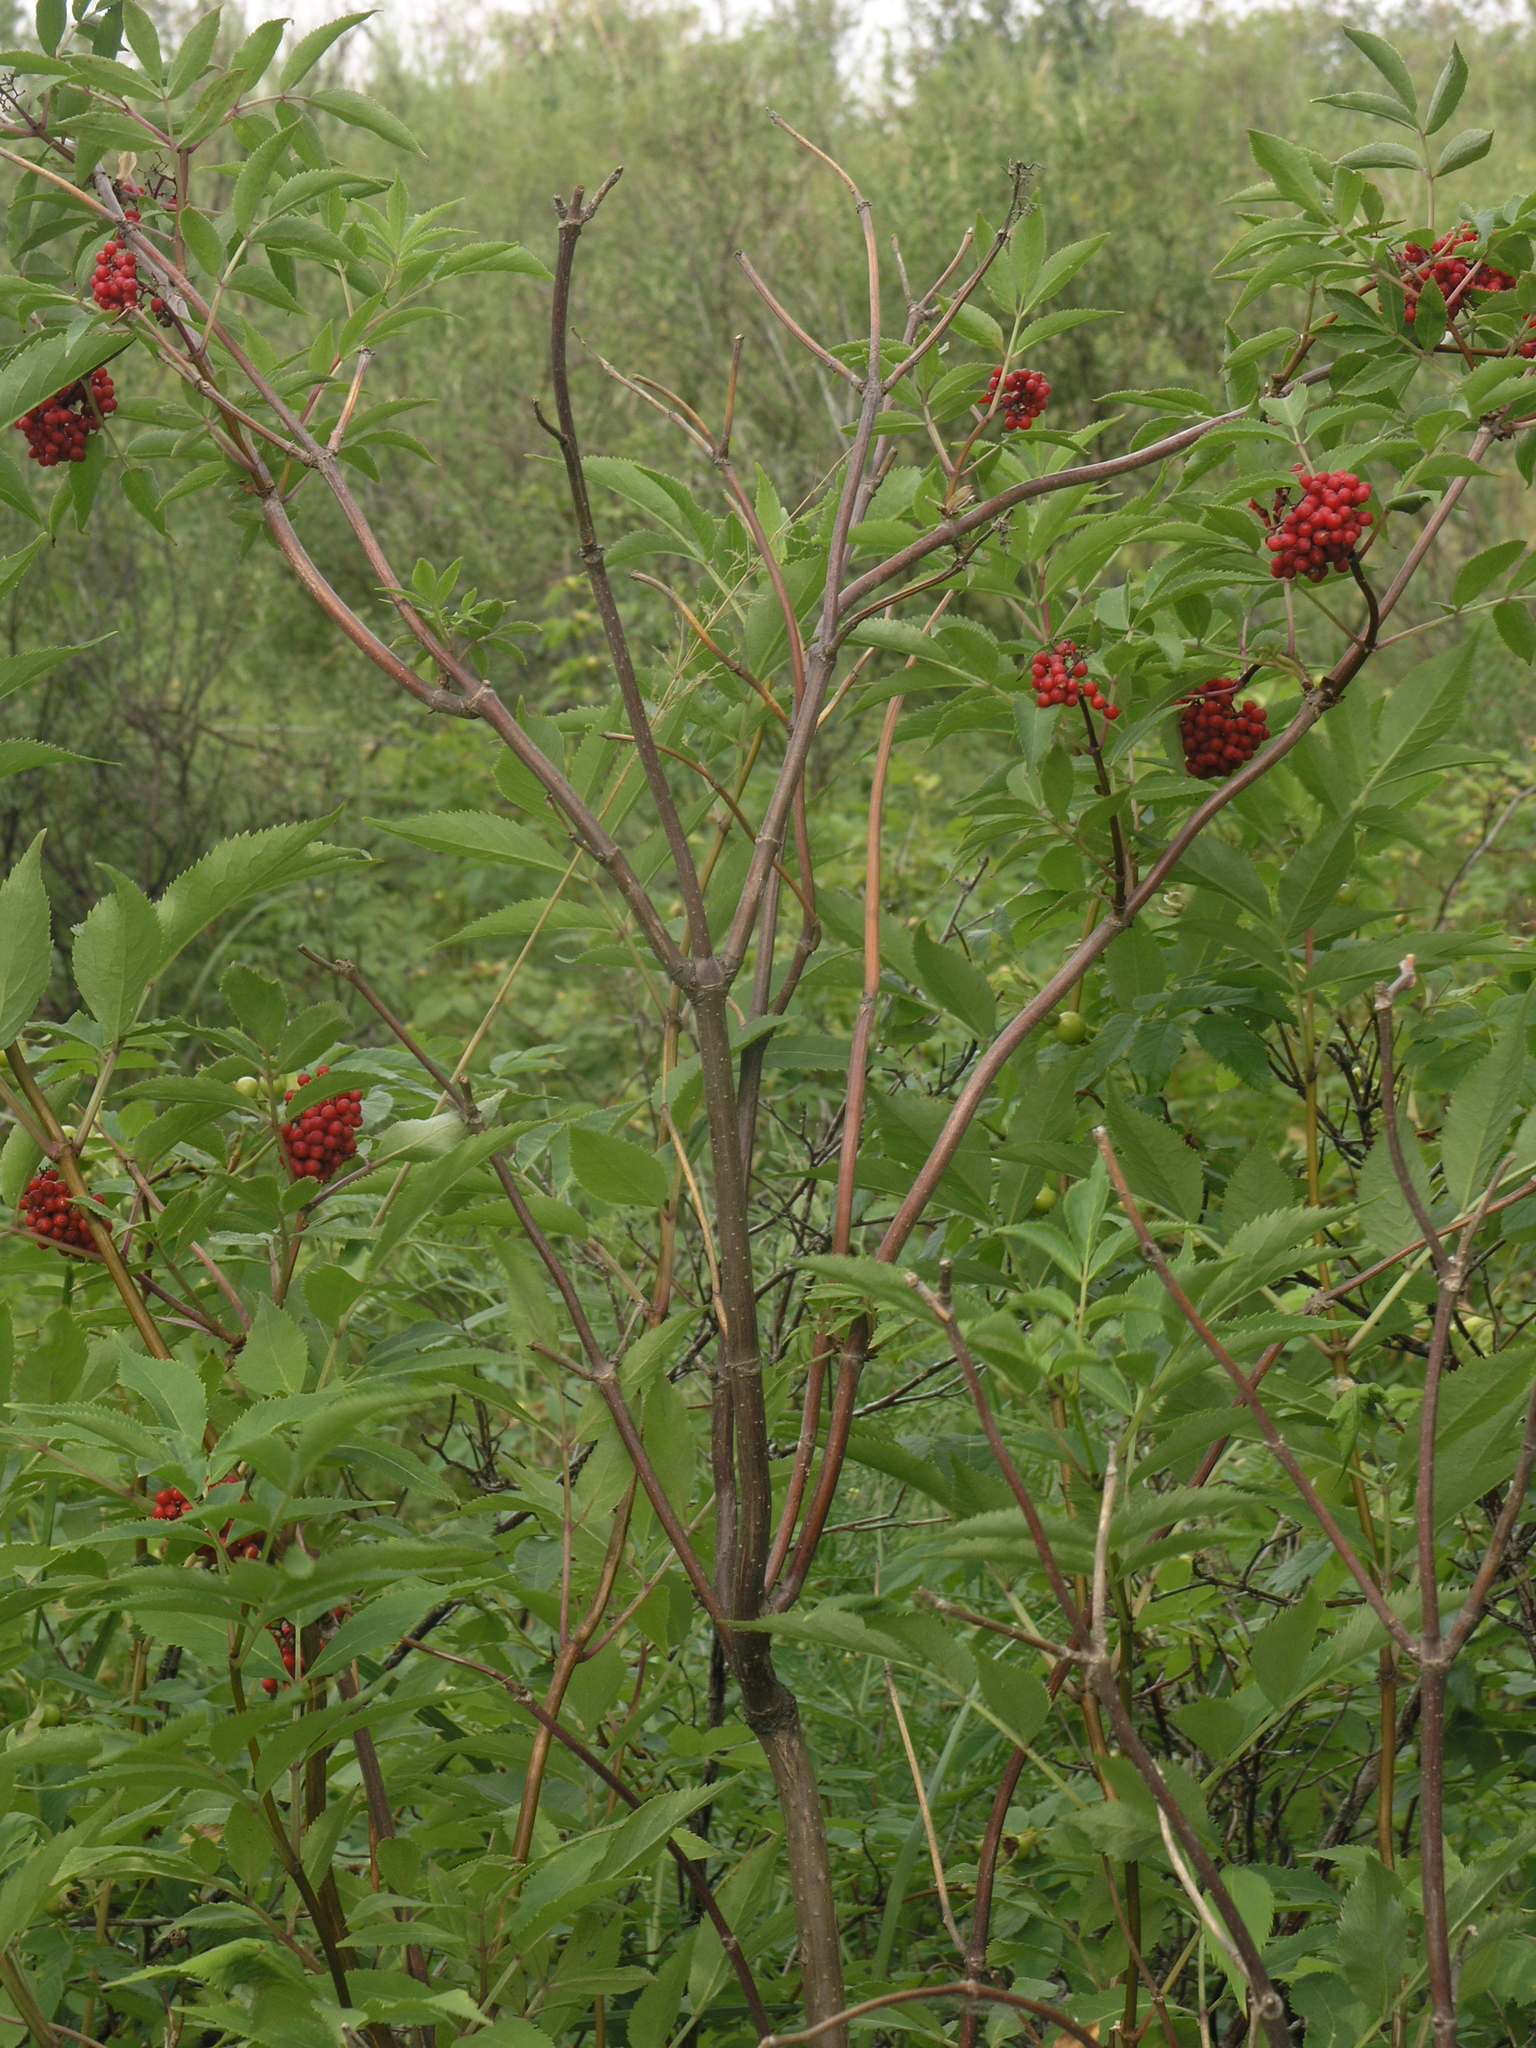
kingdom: Plantae
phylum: Tracheophyta
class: Magnoliopsida
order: Dipsacales
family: Viburnaceae
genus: Sambucus
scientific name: Sambucus racemosa
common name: Red-berried elder
